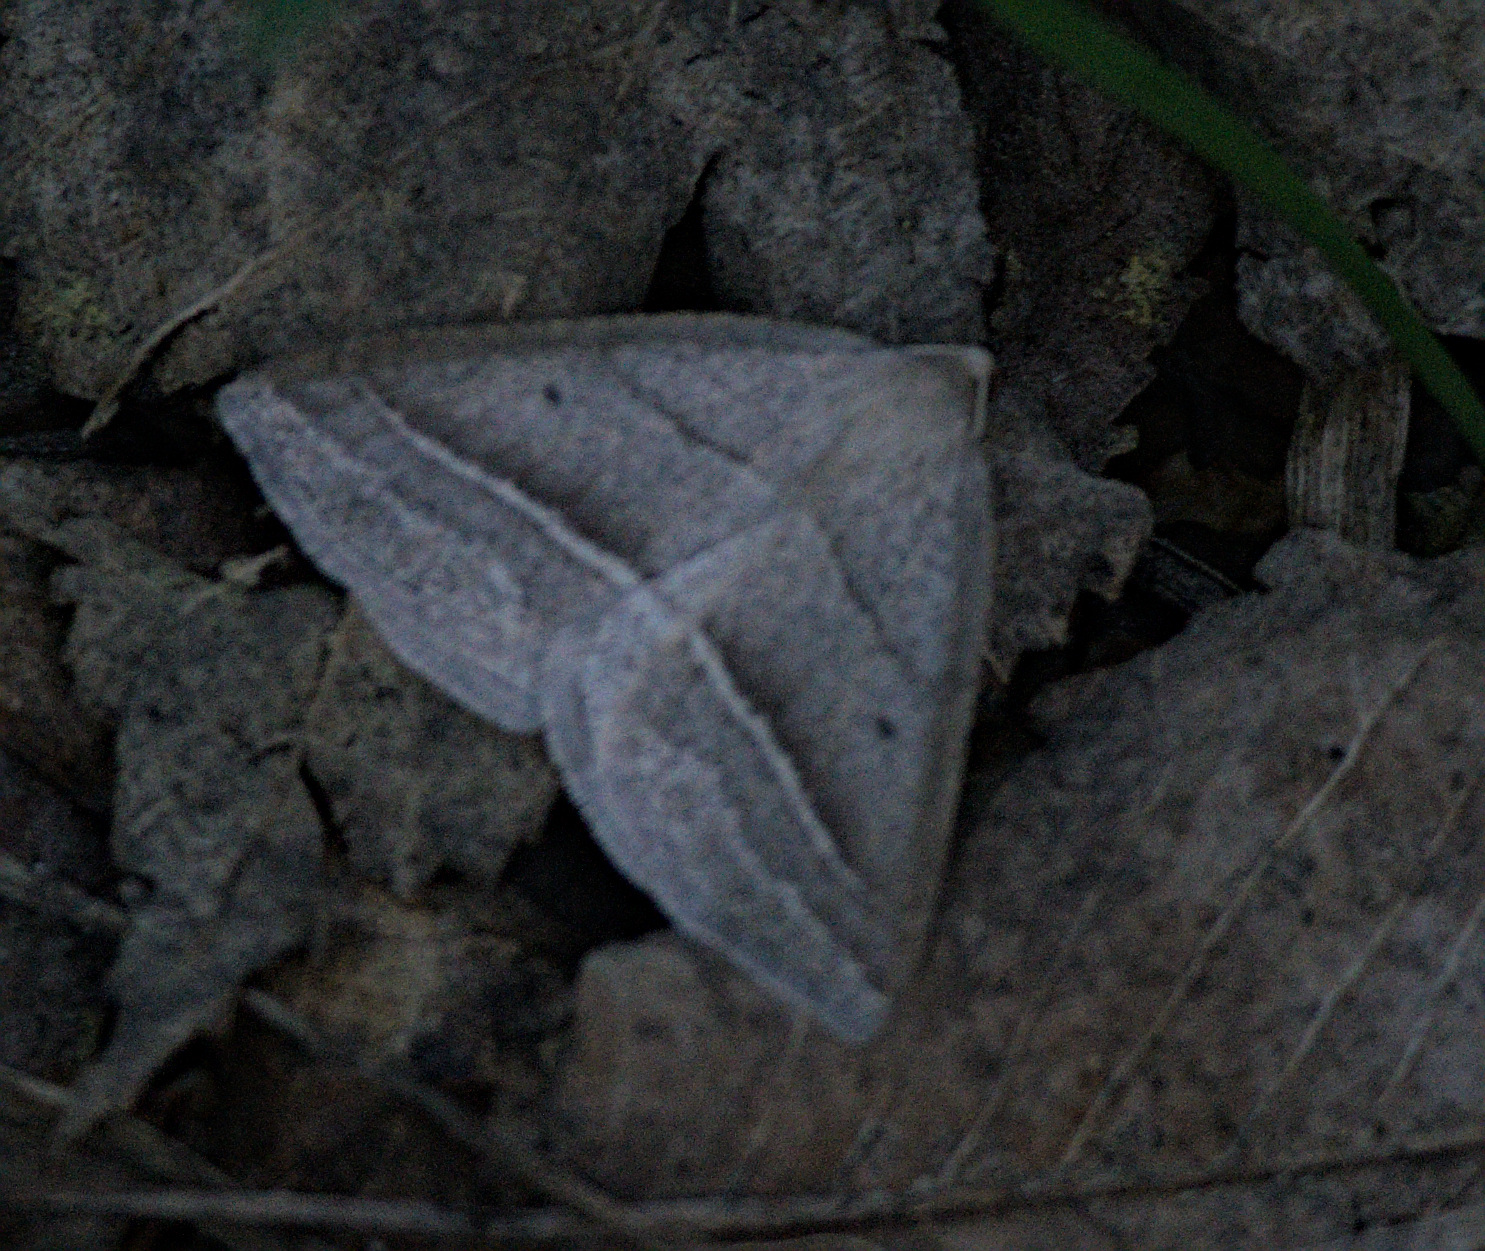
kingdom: Animalia
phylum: Arthropoda
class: Insecta
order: Lepidoptera
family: Pterophoridae
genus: Pterophorus
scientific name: Pterophorus Petrophora chlorosata
